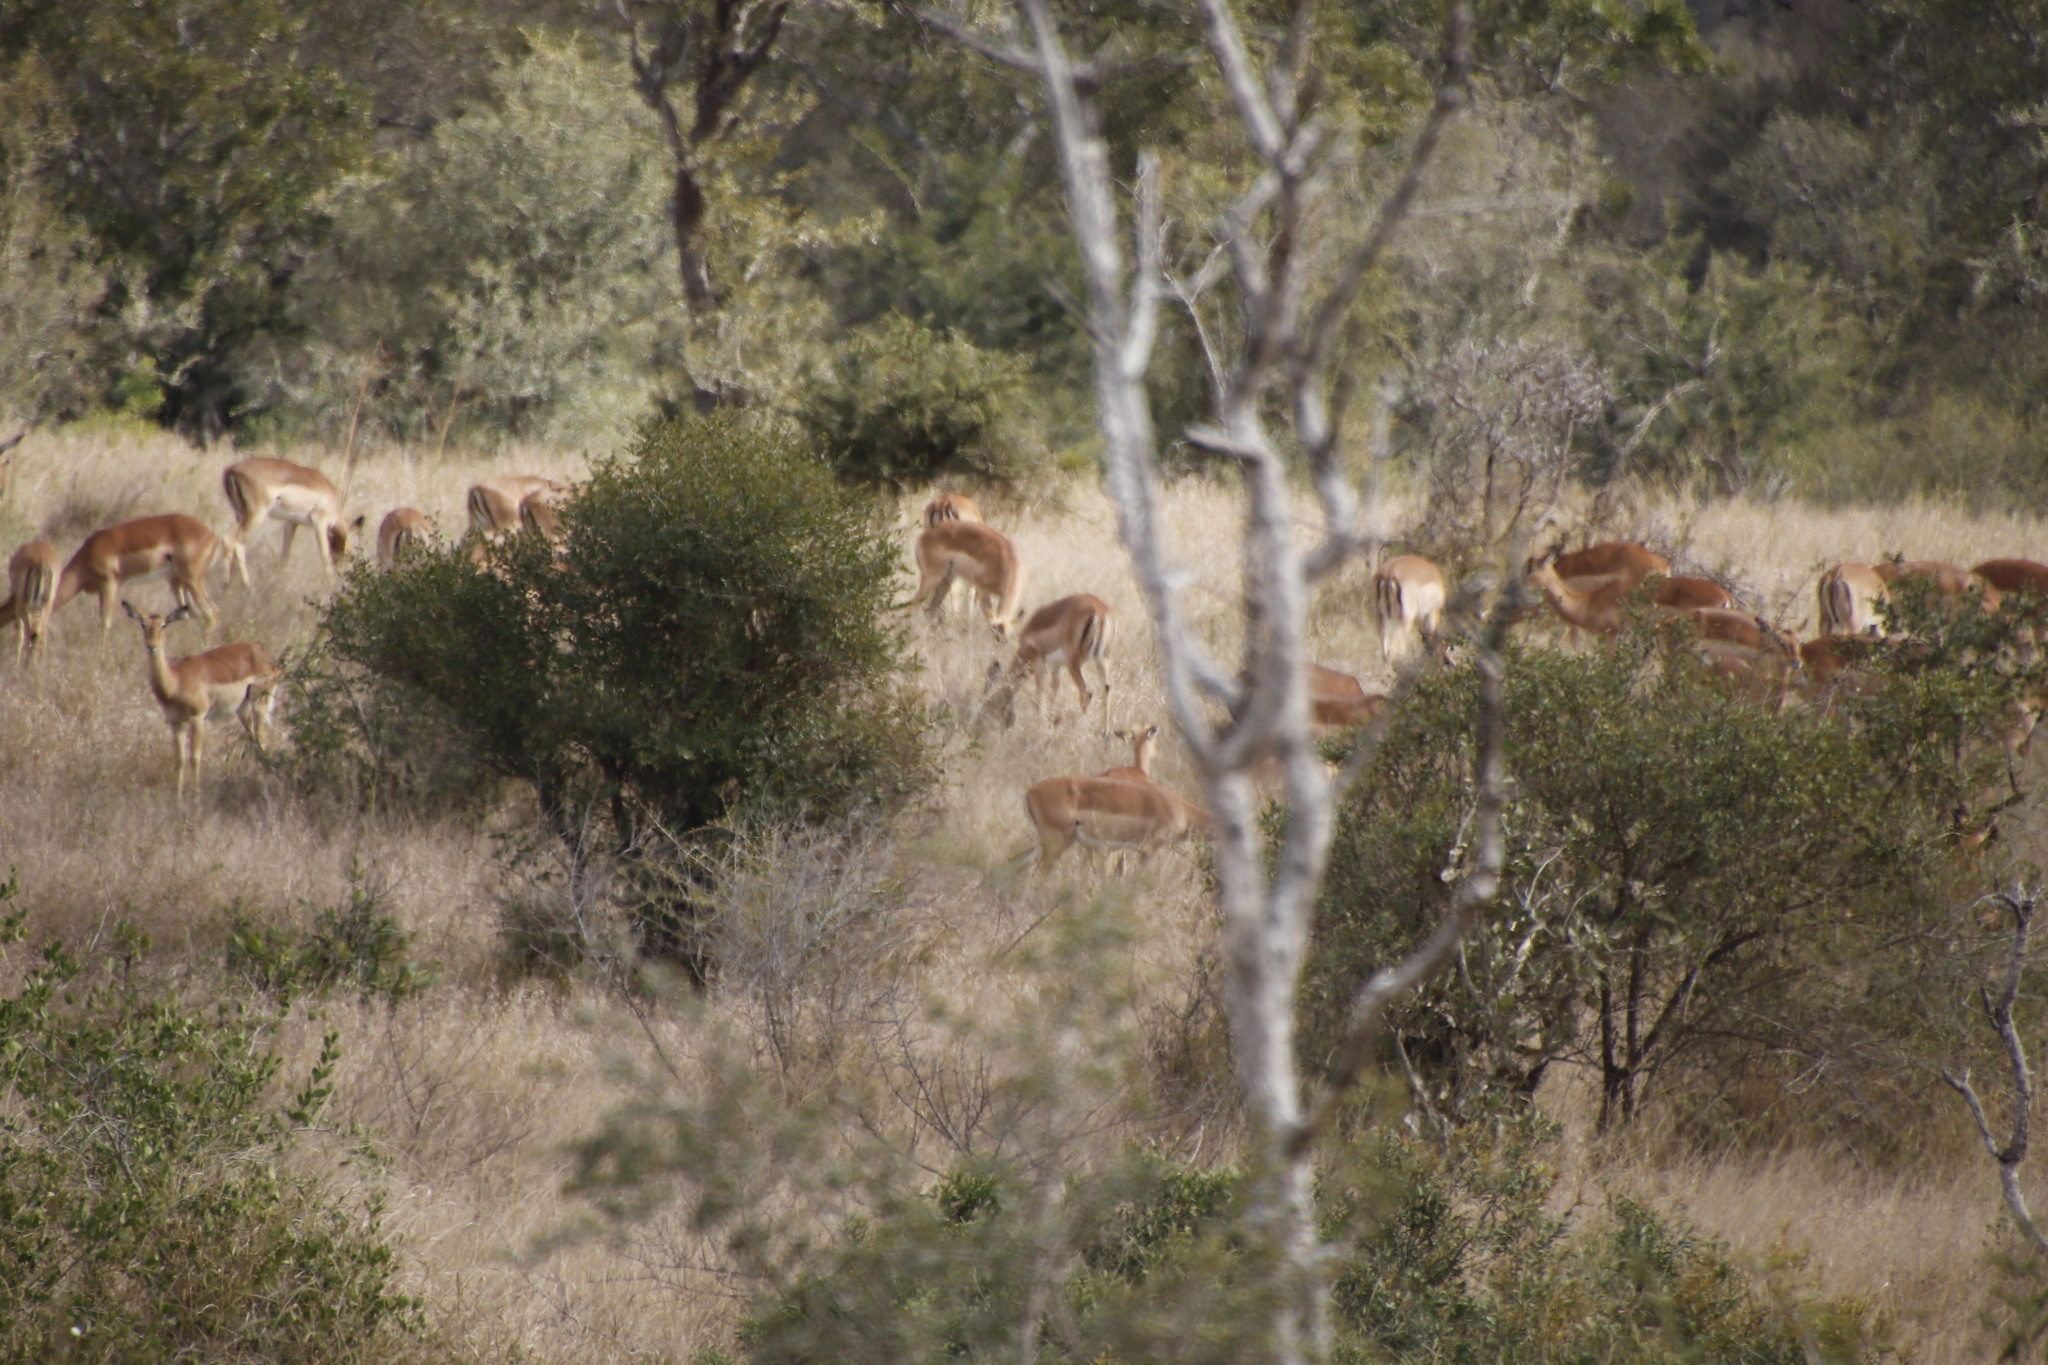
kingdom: Animalia
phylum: Chordata
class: Mammalia
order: Artiodactyla
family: Bovidae
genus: Aepyceros
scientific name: Aepyceros melampus
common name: Impala
